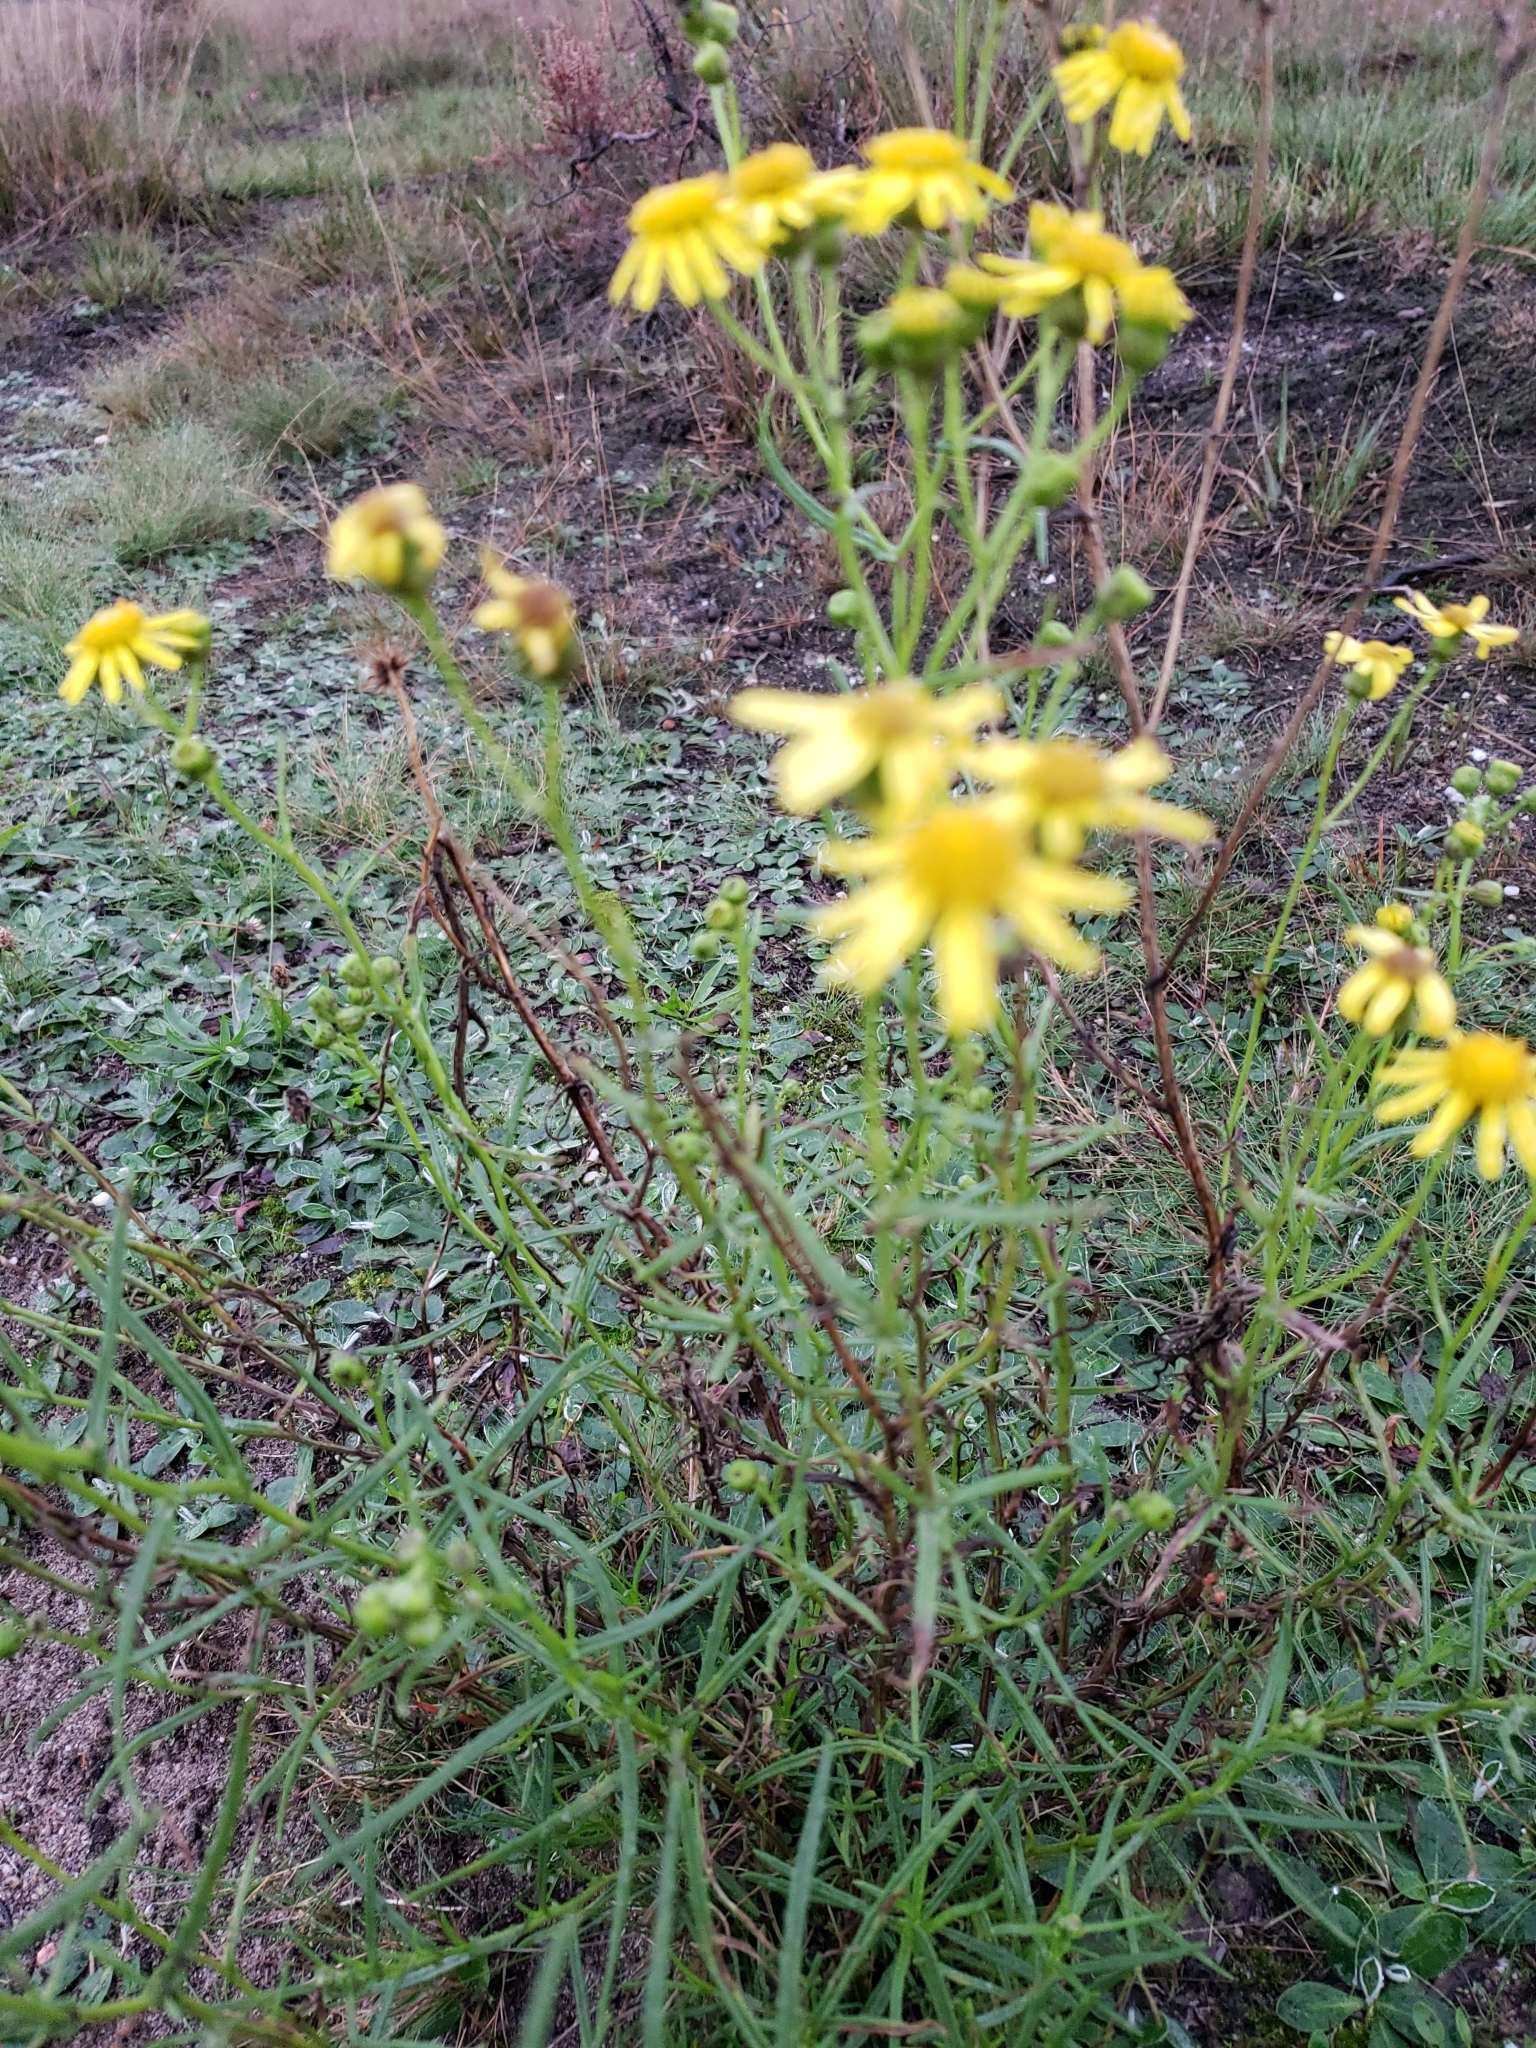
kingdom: Plantae
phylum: Tracheophyta
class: Magnoliopsida
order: Asterales
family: Asteraceae
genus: Senecio
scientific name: Senecio inaequidens
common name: Narrow-leaved ragwort
